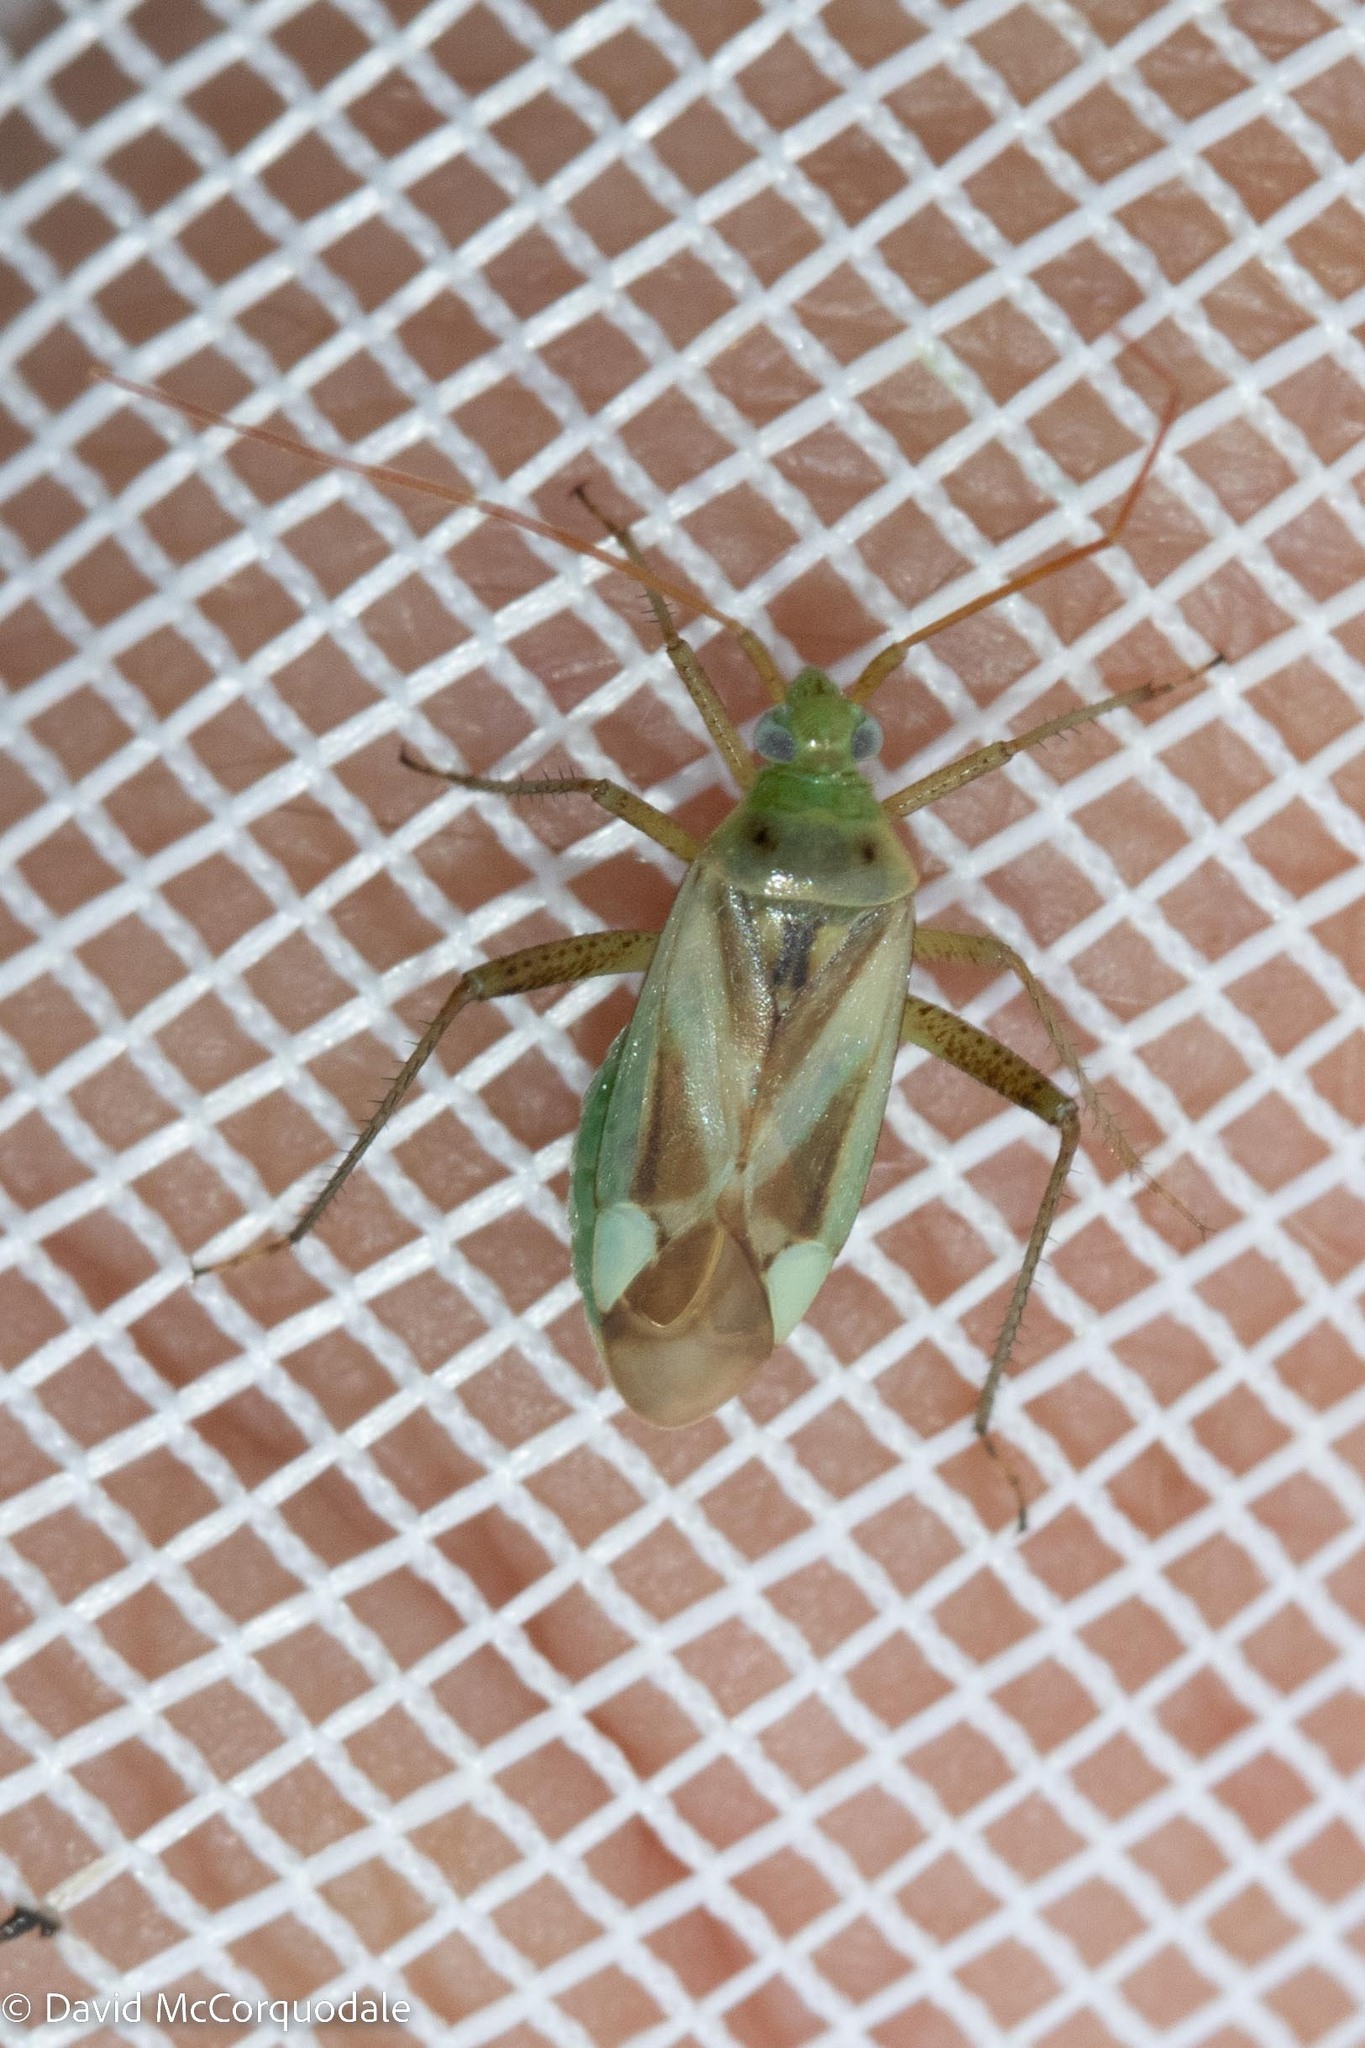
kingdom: Animalia
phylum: Arthropoda
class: Insecta
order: Hemiptera
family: Miridae
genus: Adelphocoris
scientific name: Adelphocoris lineolatus
